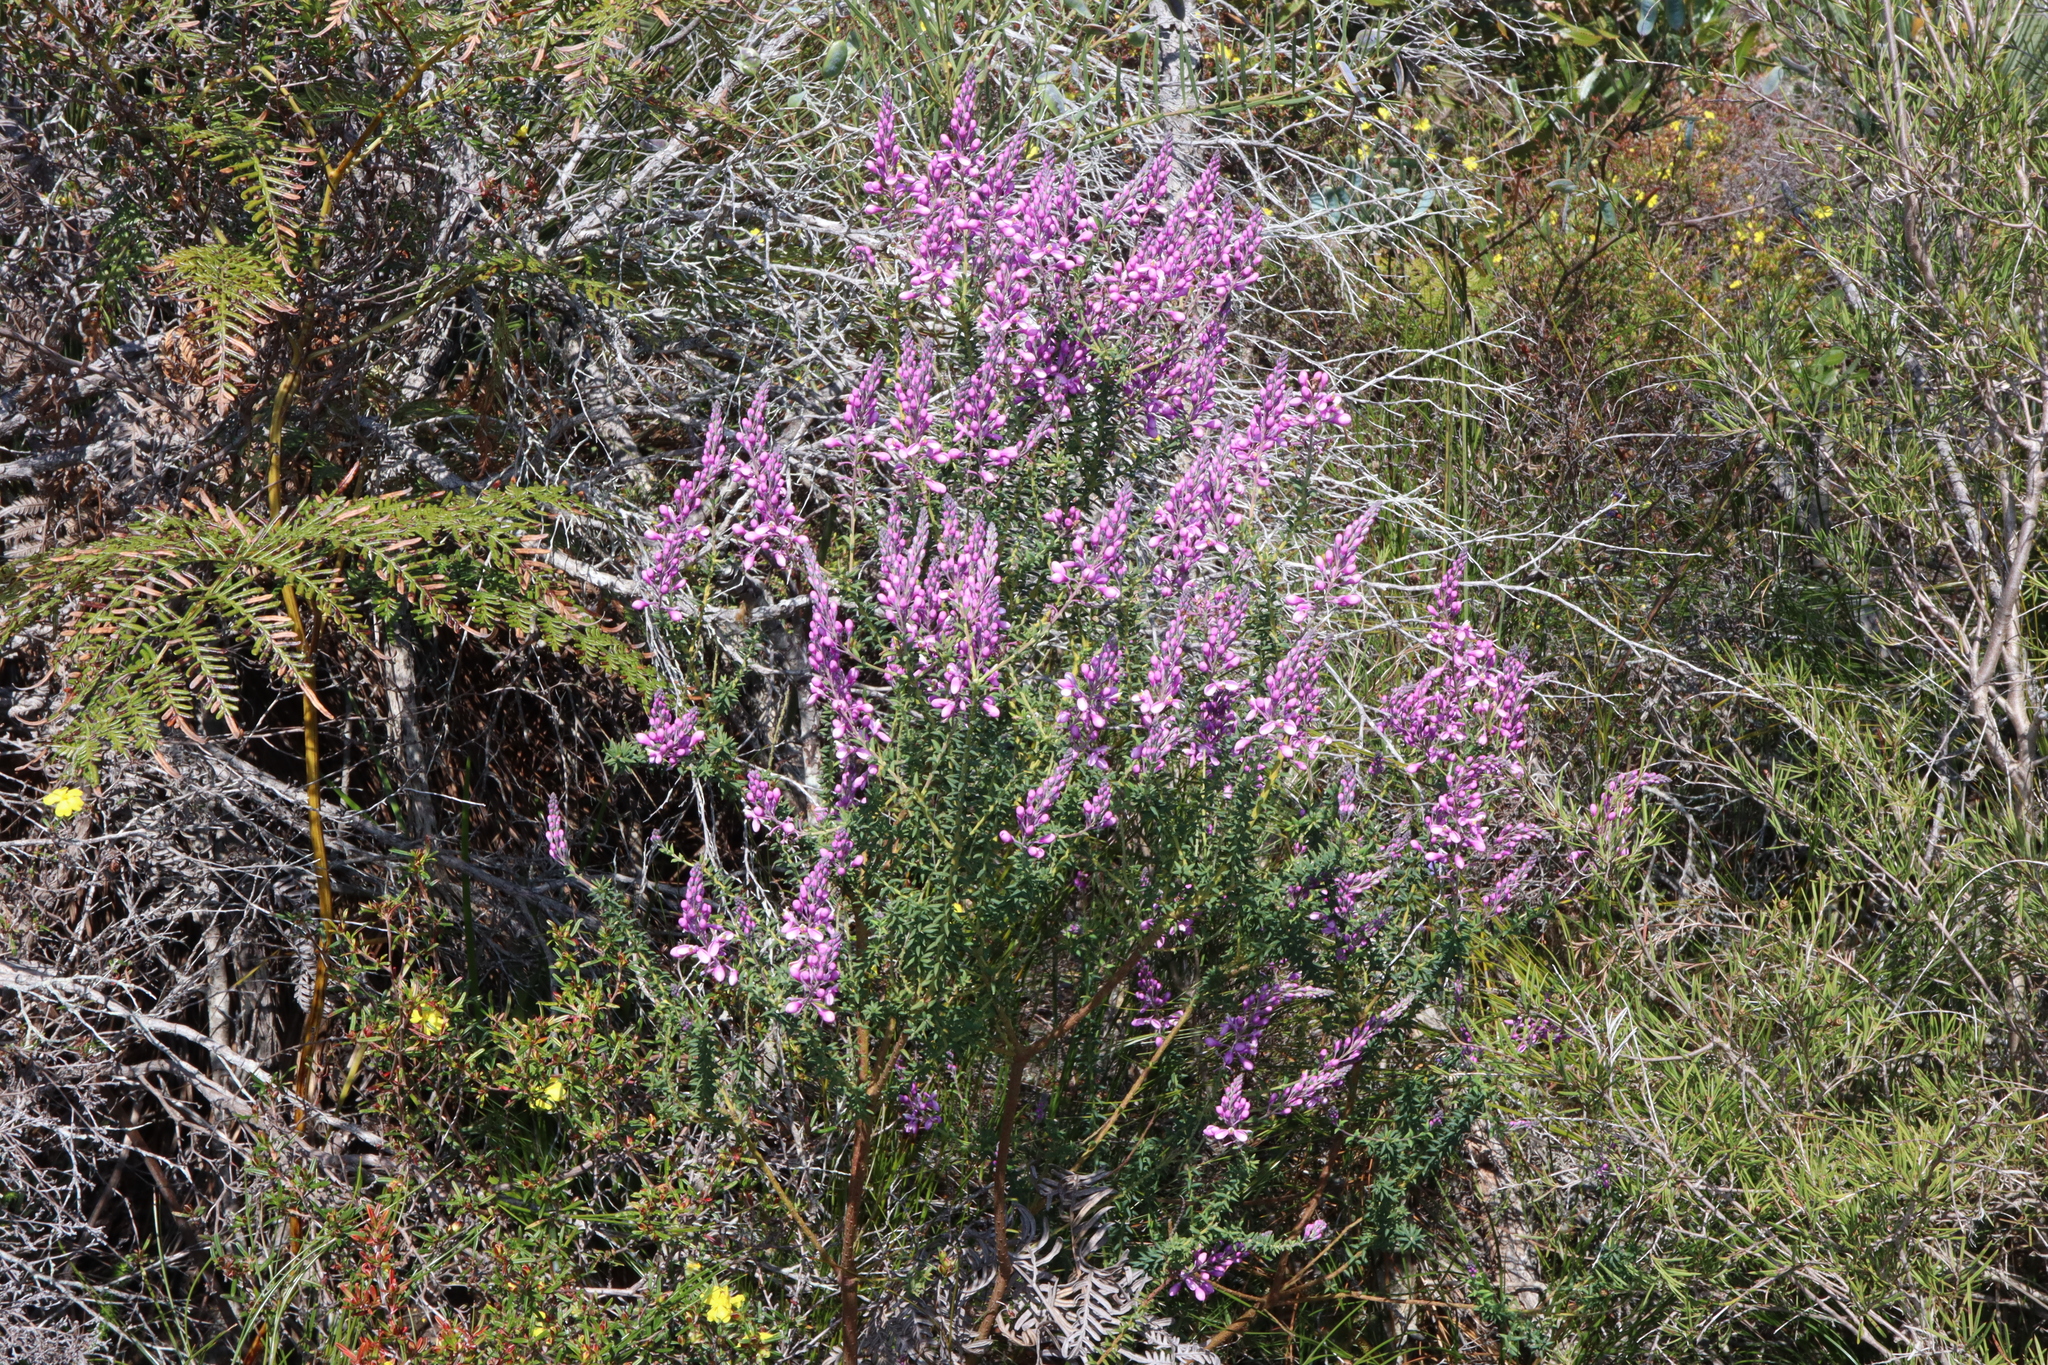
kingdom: Plantae
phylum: Tracheophyta
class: Magnoliopsida
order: Fabales
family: Polygalaceae
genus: Comesperma
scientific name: Comesperma ericinum
